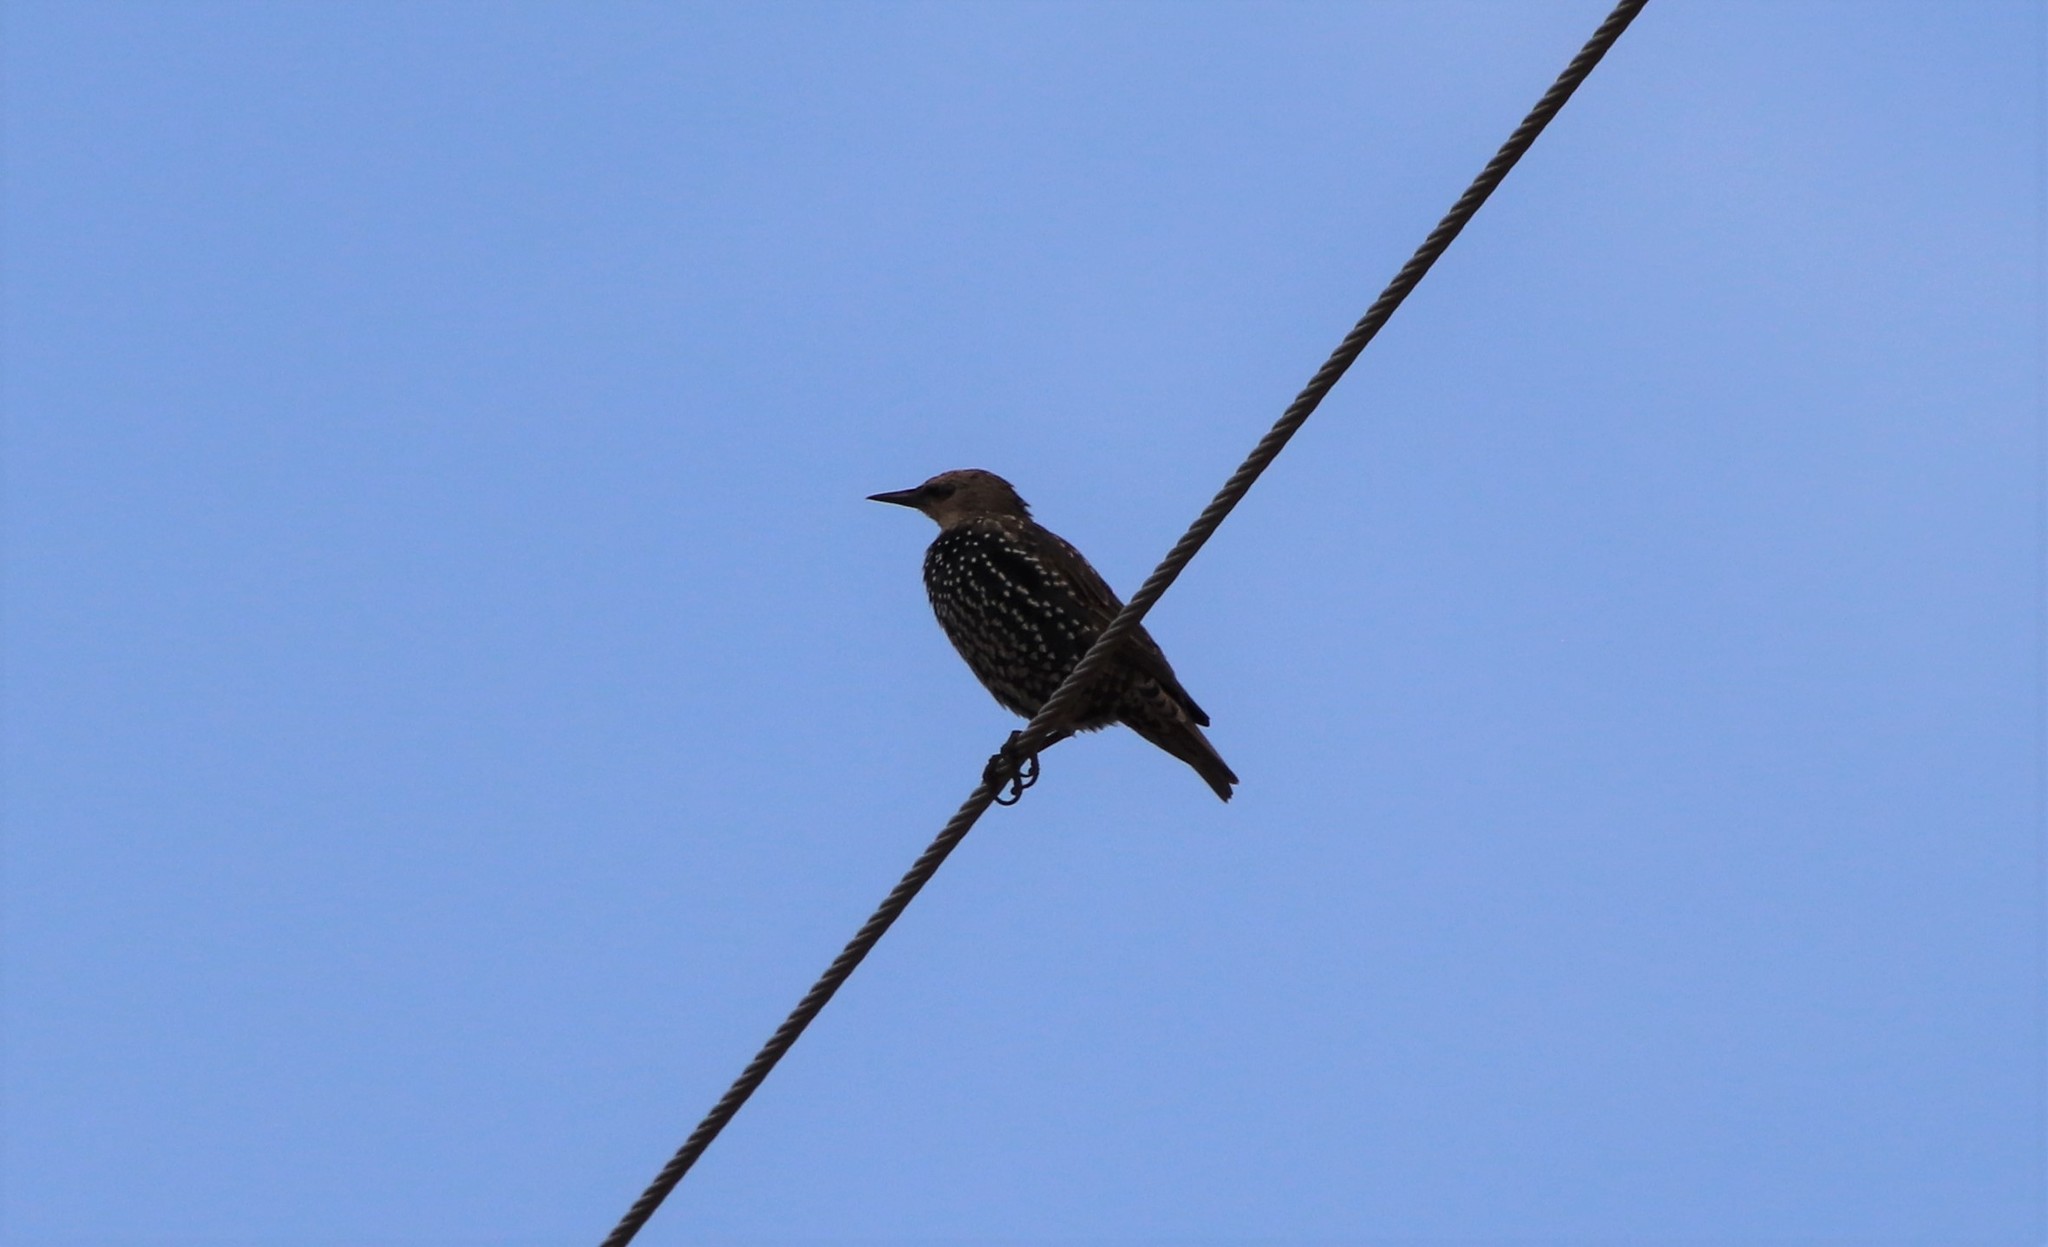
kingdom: Animalia
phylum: Chordata
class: Aves
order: Passeriformes
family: Sturnidae
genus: Sturnus
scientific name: Sturnus vulgaris
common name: Common starling
